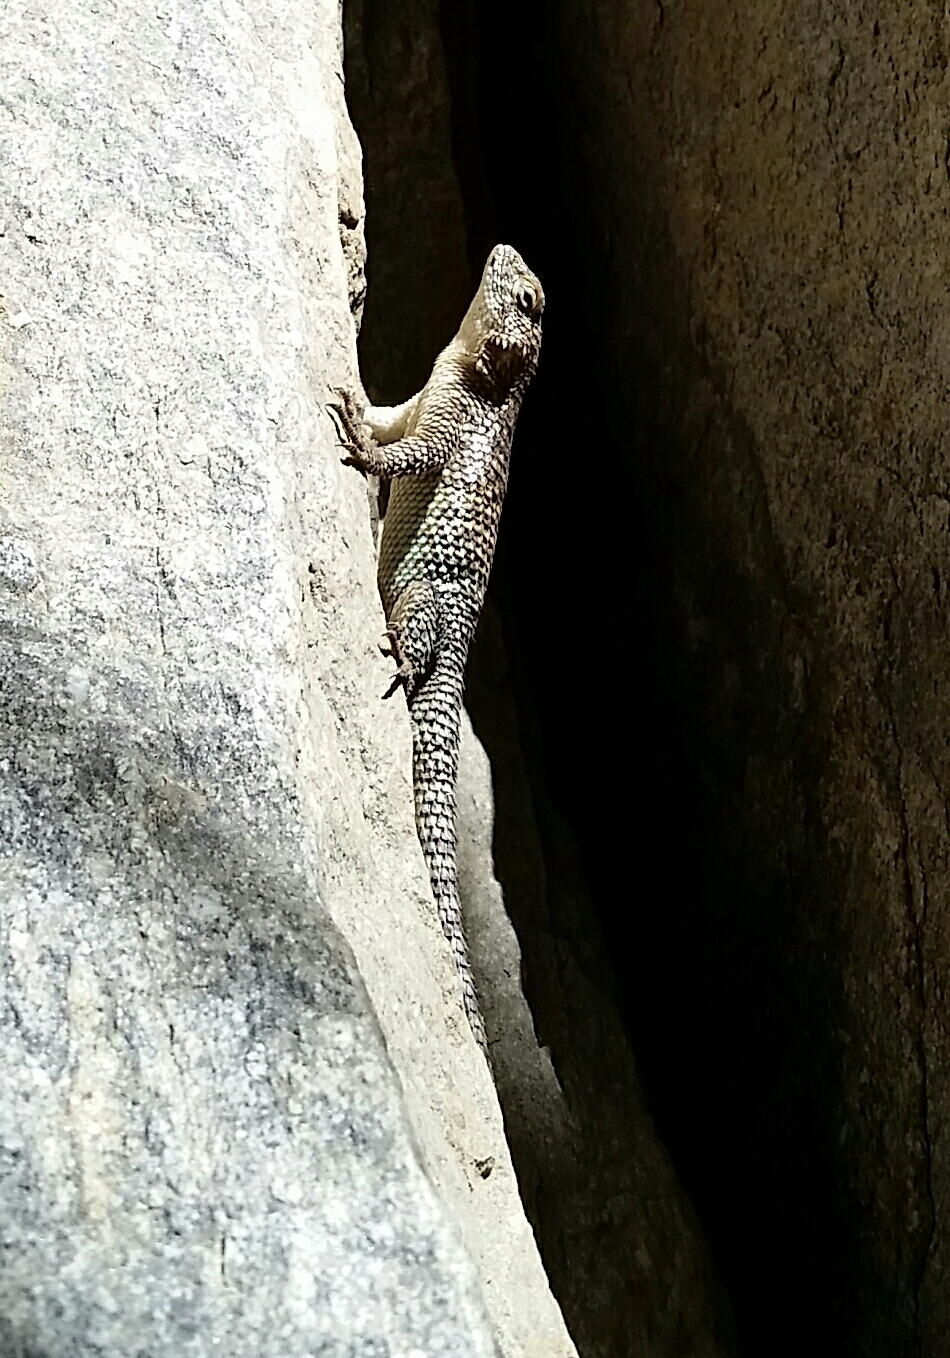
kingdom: Animalia
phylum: Chordata
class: Squamata
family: Phrynosomatidae
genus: Sceloporus
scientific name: Sceloporus orcutti
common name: Granite spiny lizard
